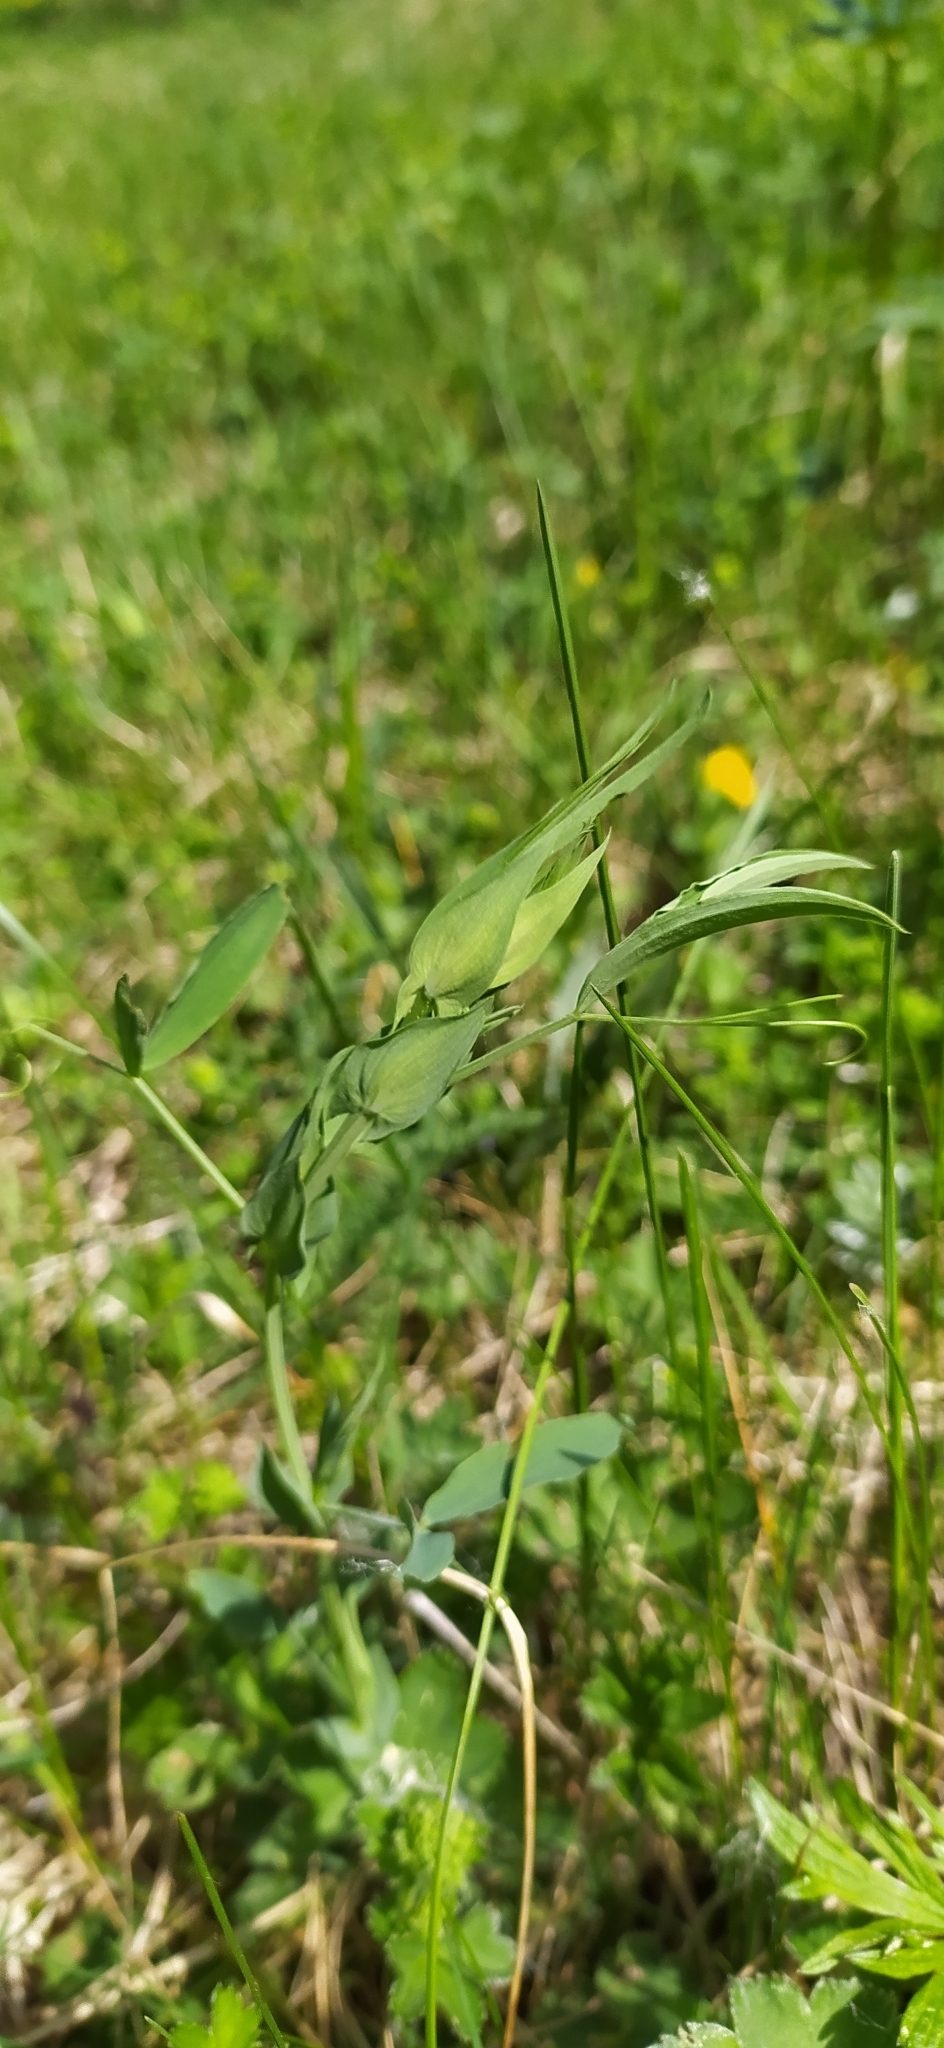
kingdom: Plantae
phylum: Tracheophyta
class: Magnoliopsida
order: Fabales
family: Fabaceae
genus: Lathyrus
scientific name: Lathyrus pratensis
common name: Meadow vetchling
